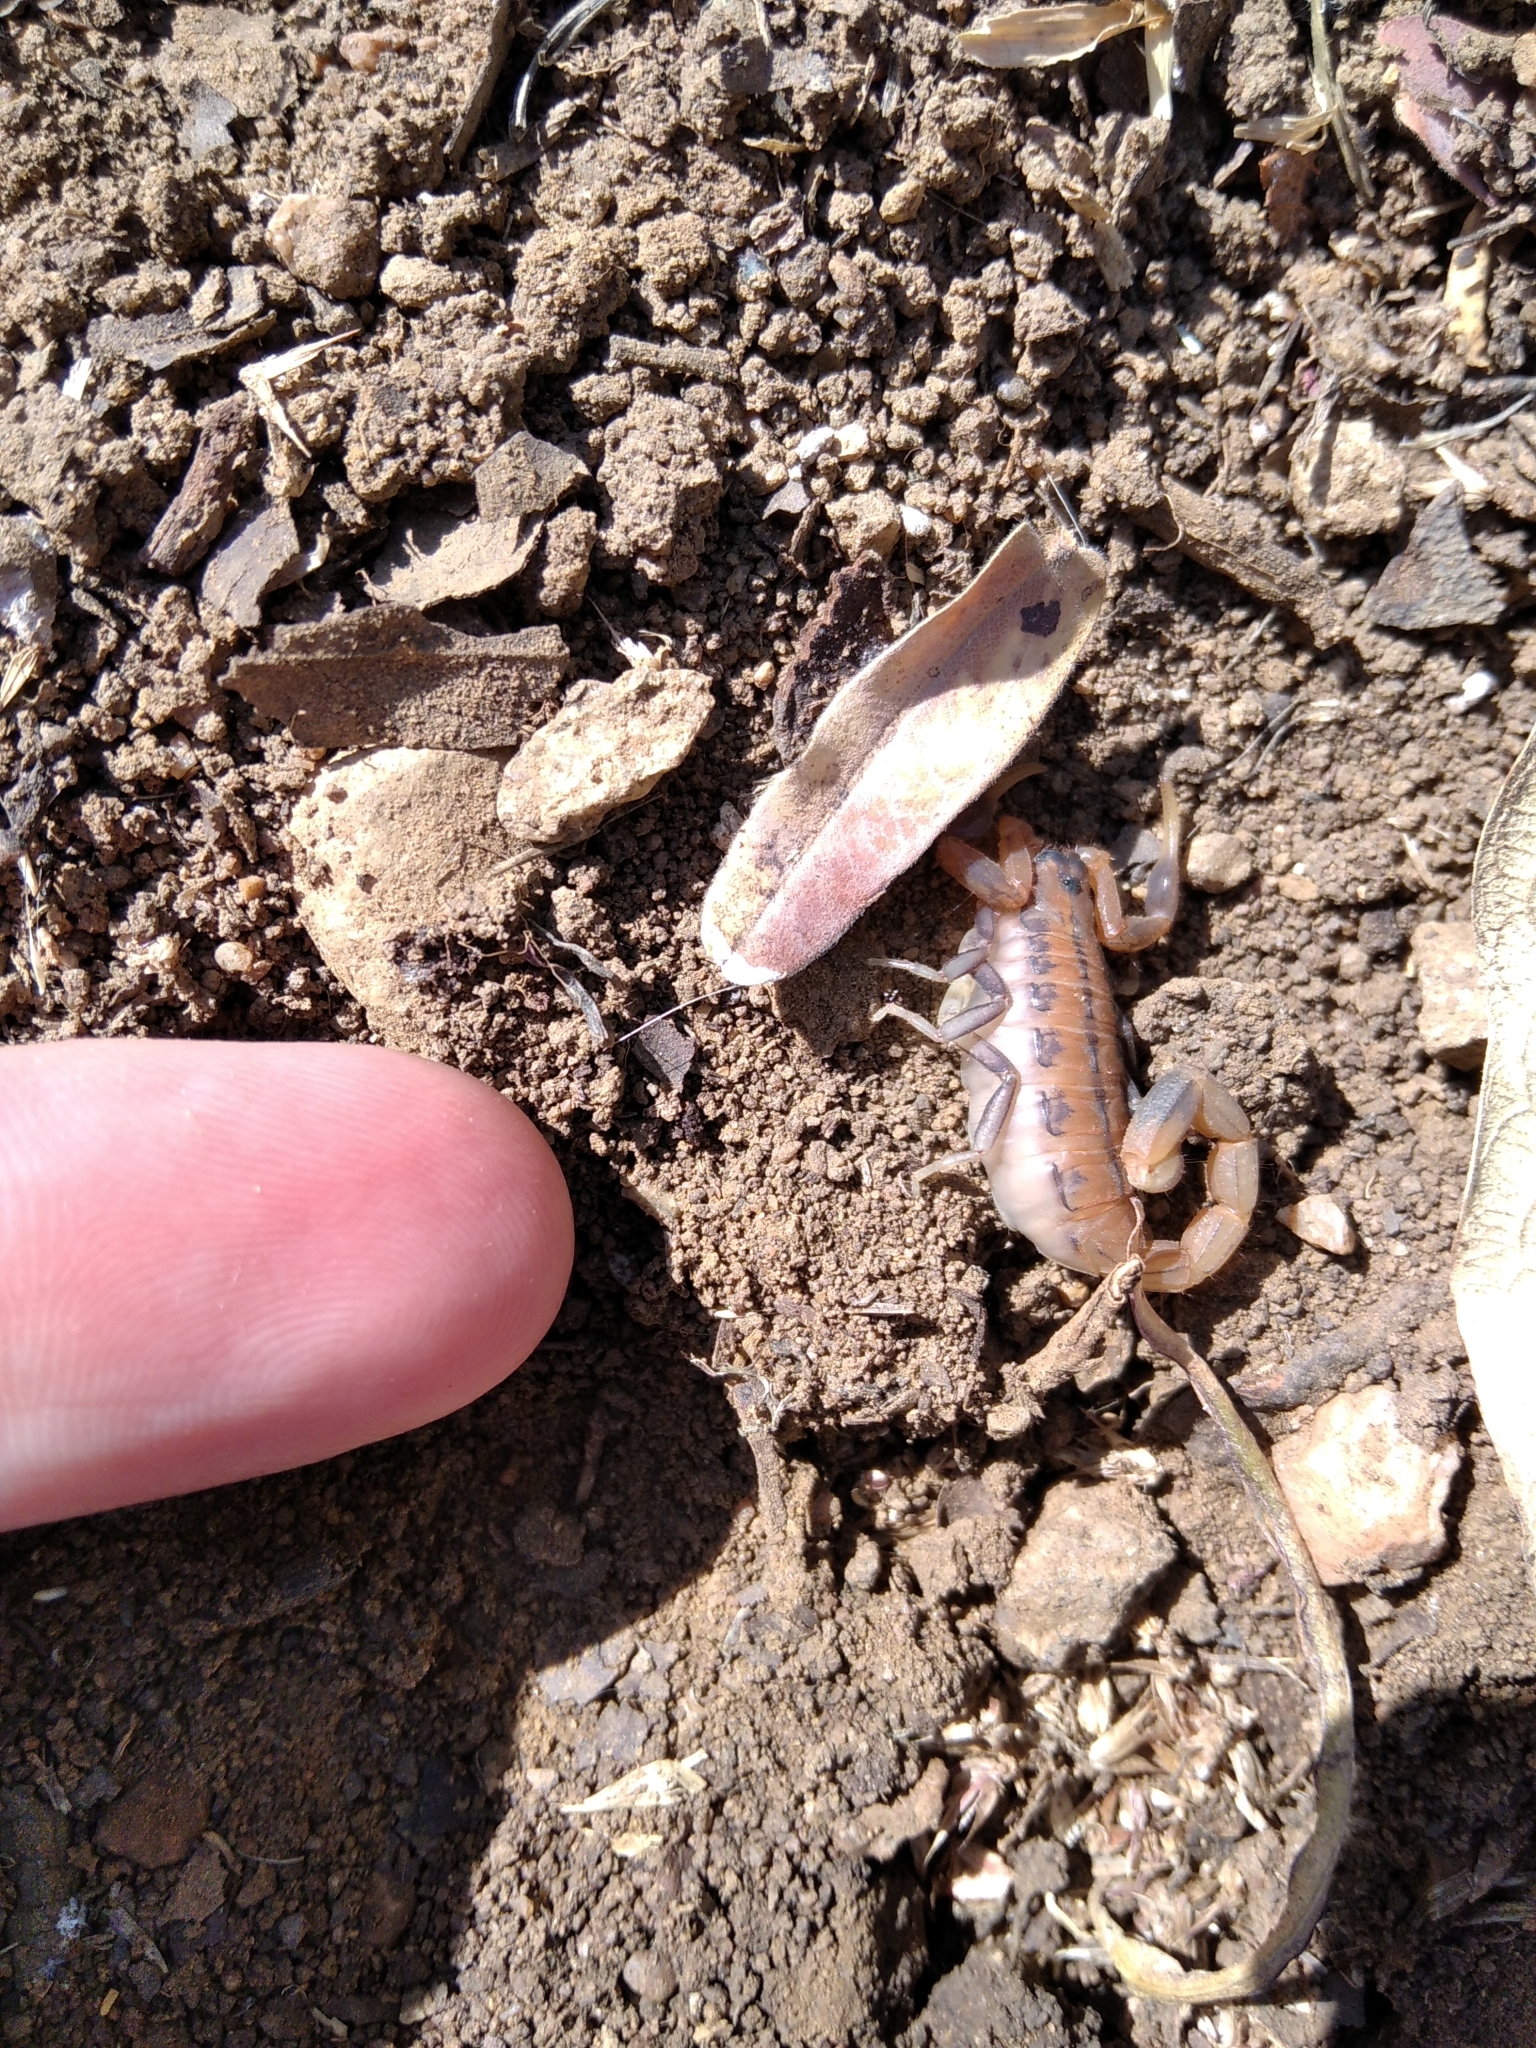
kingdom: Animalia
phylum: Arthropoda
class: Arachnida
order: Scorpiones
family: Buthidae
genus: Uroplectes
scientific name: Uroplectes planimanus
